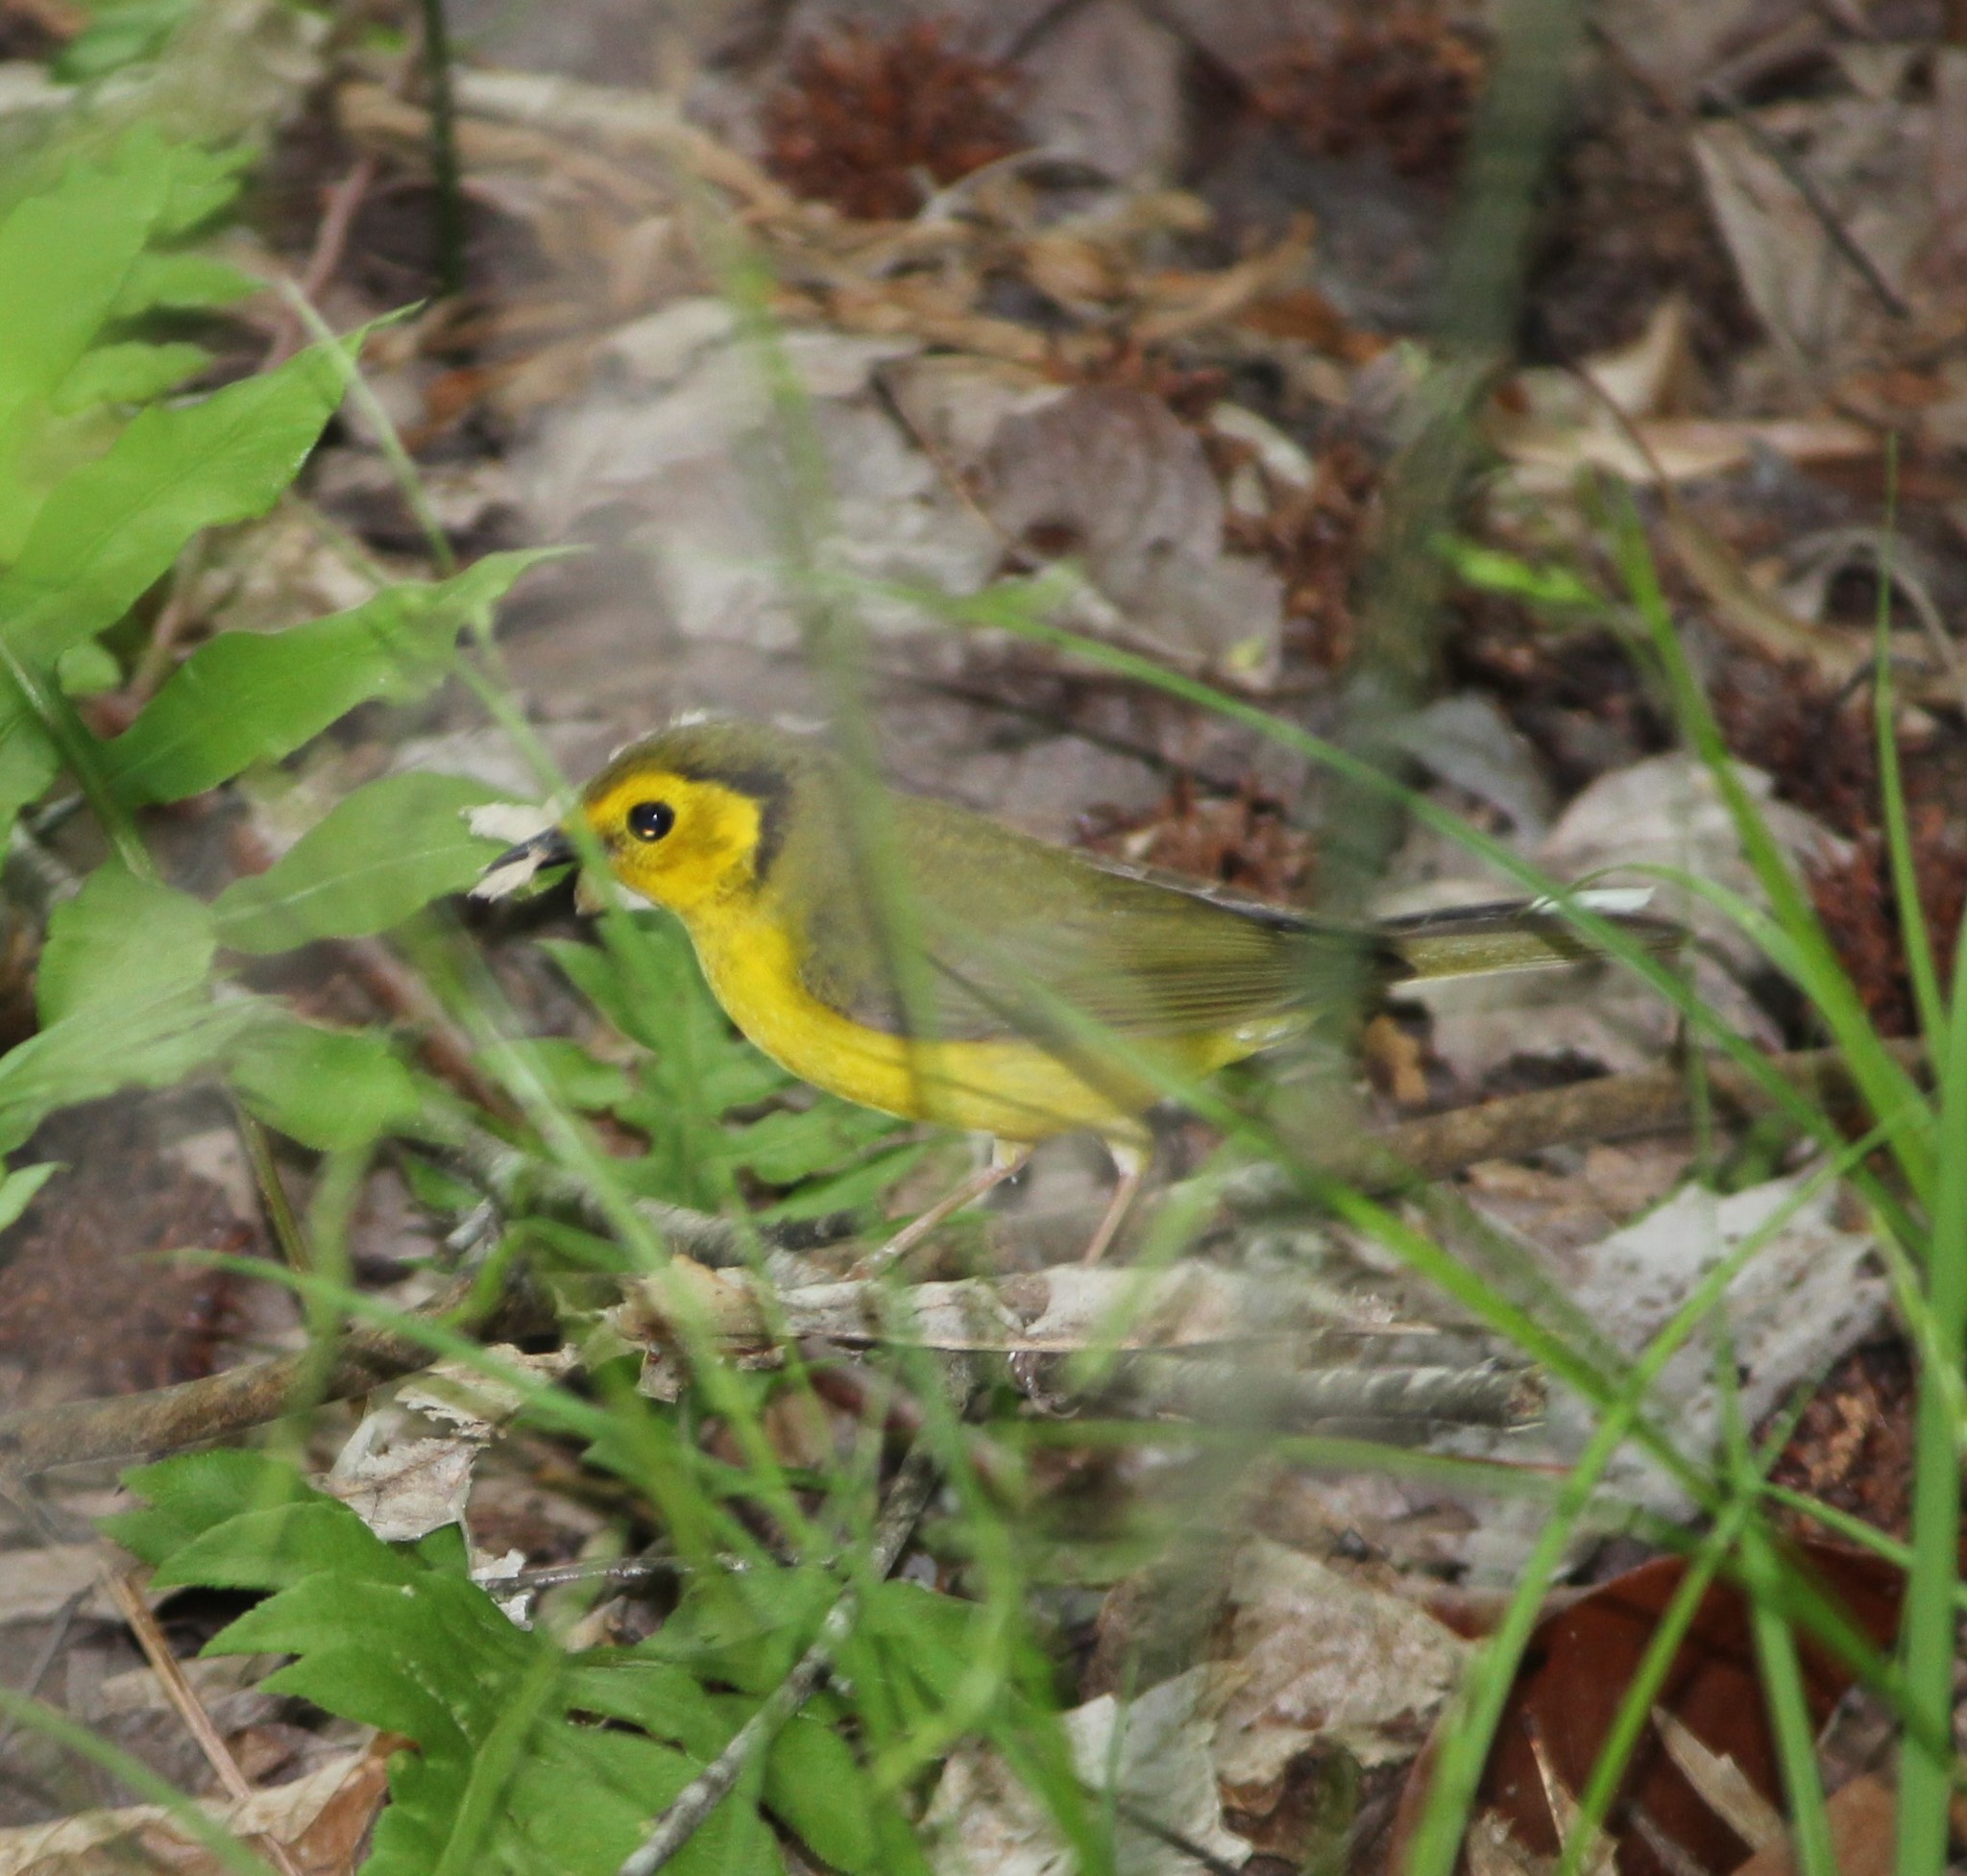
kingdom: Animalia
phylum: Chordata
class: Aves
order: Passeriformes
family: Parulidae
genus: Setophaga
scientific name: Setophaga citrina
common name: Hooded warbler
